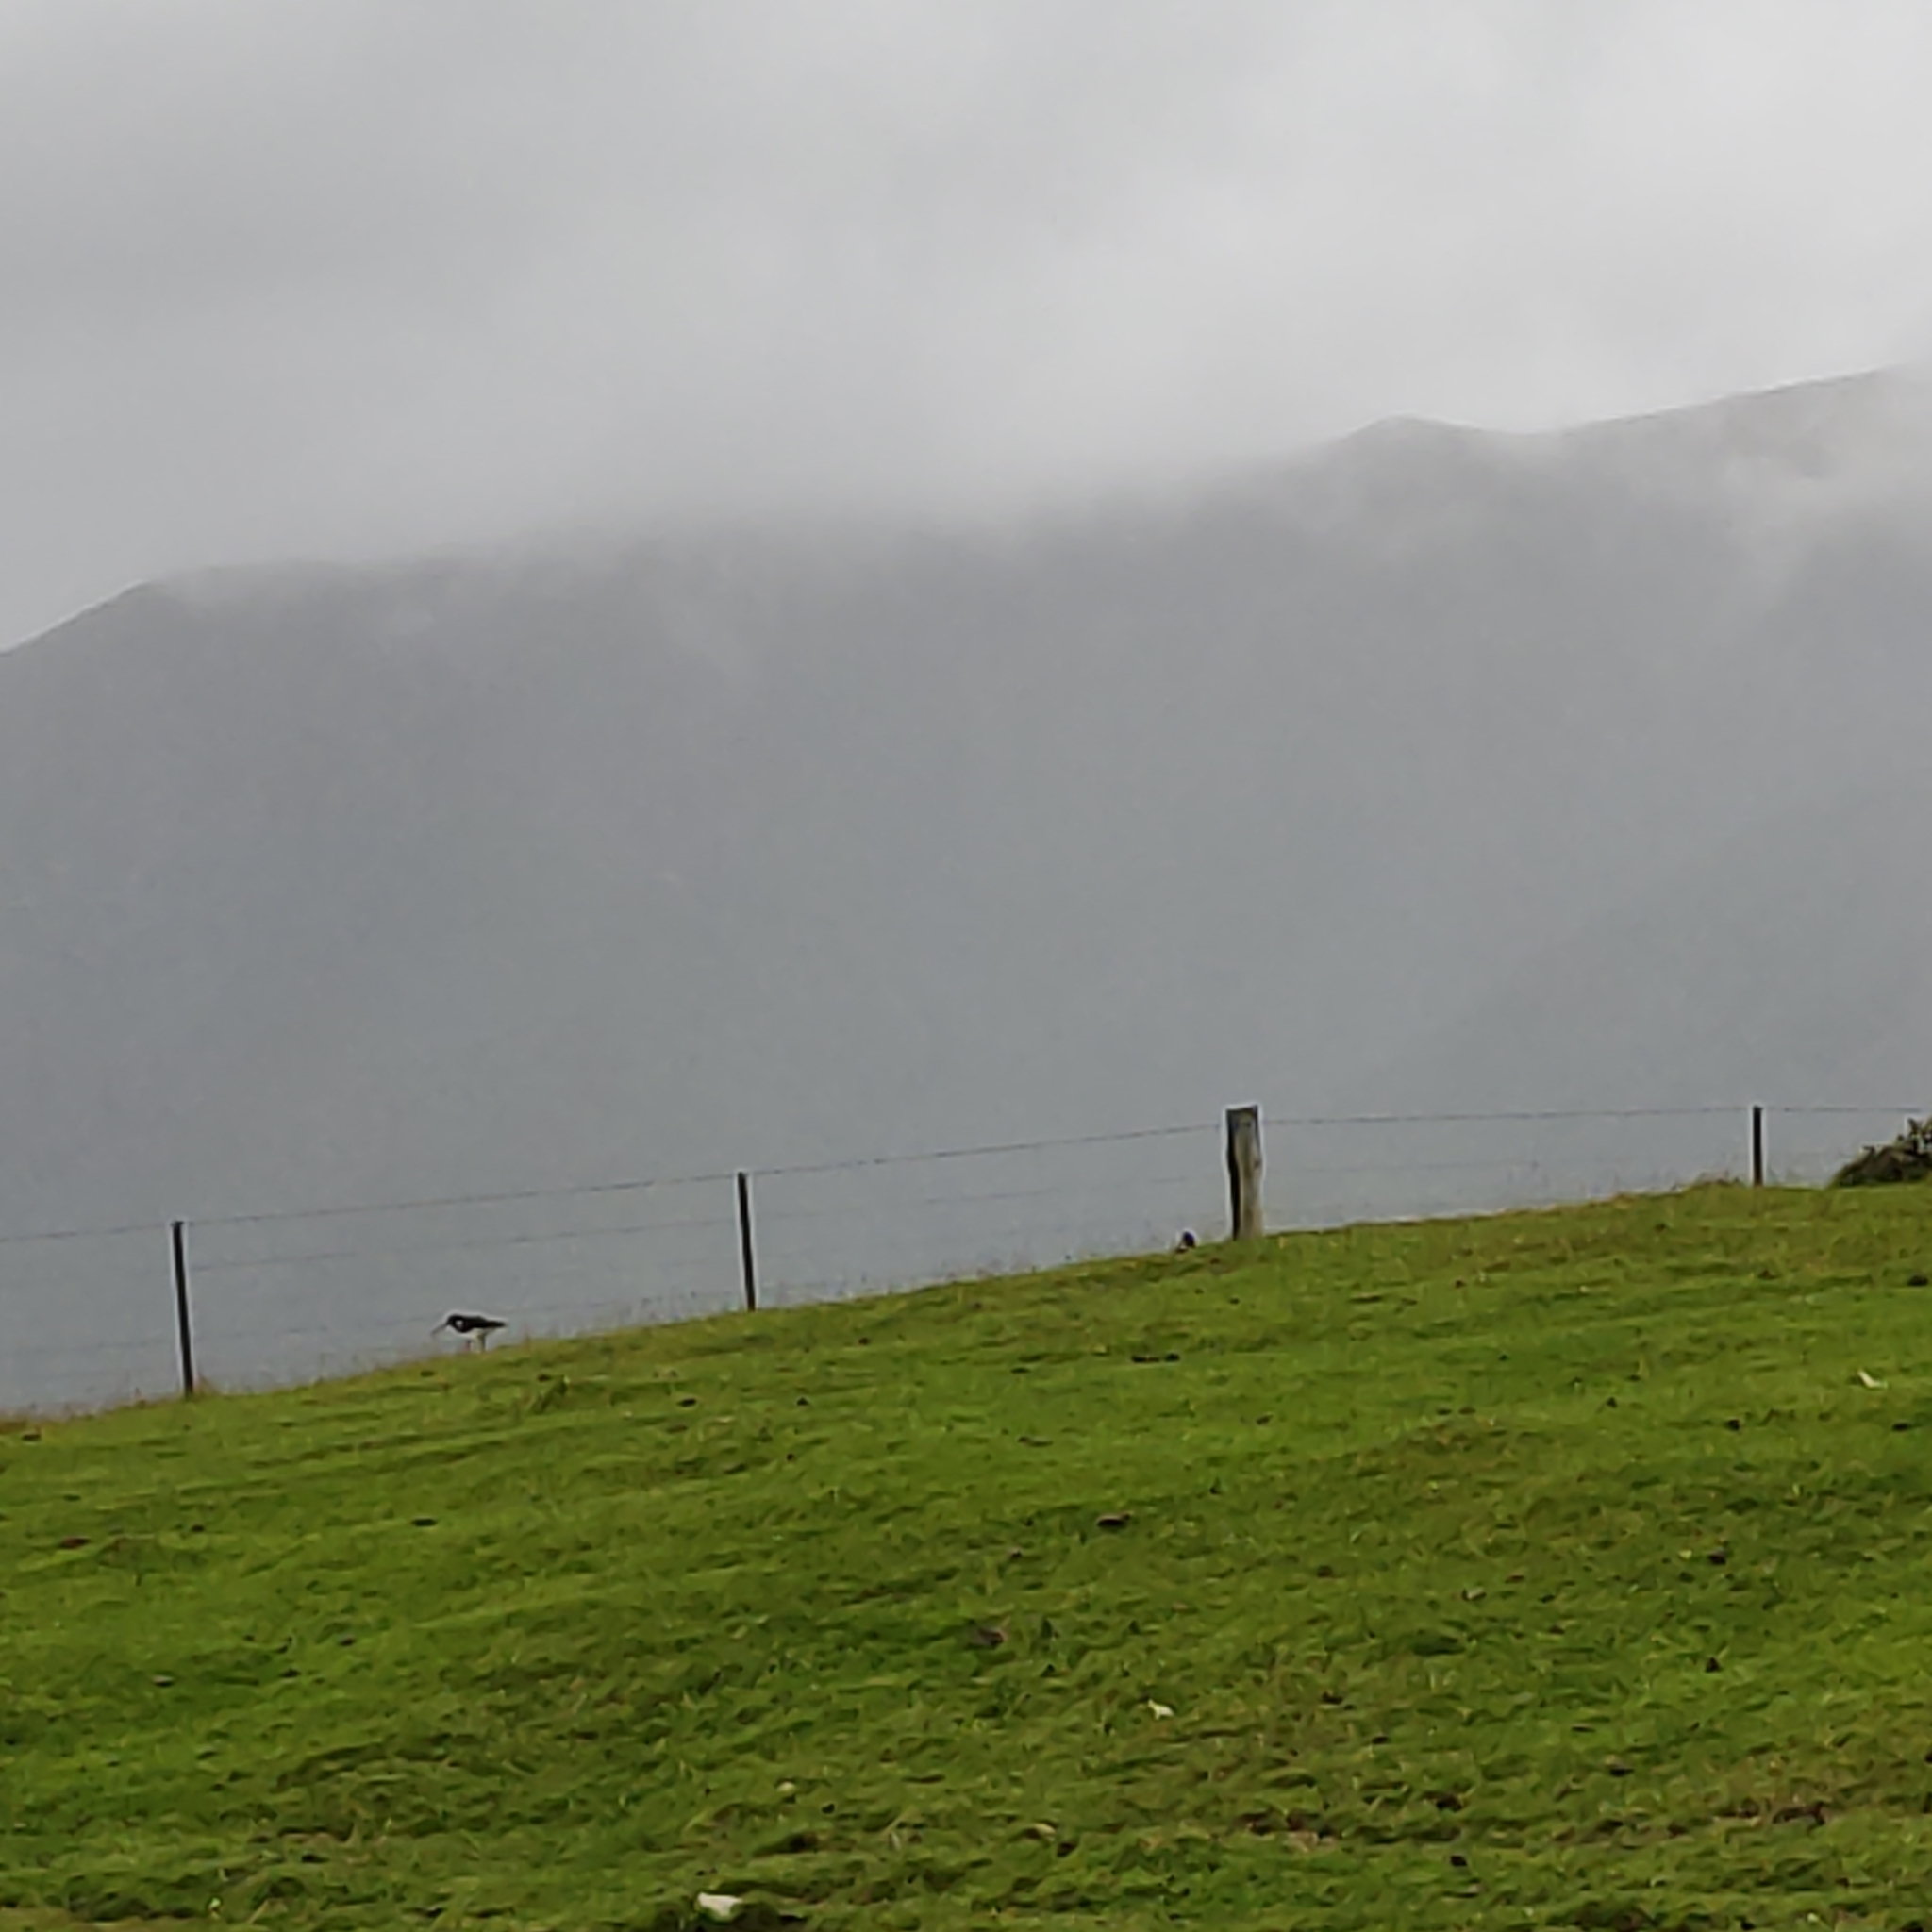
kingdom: Animalia
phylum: Chordata
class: Aves
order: Charadriiformes
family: Haematopodidae
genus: Haematopus
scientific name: Haematopus finschi
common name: South island oystercatcher
